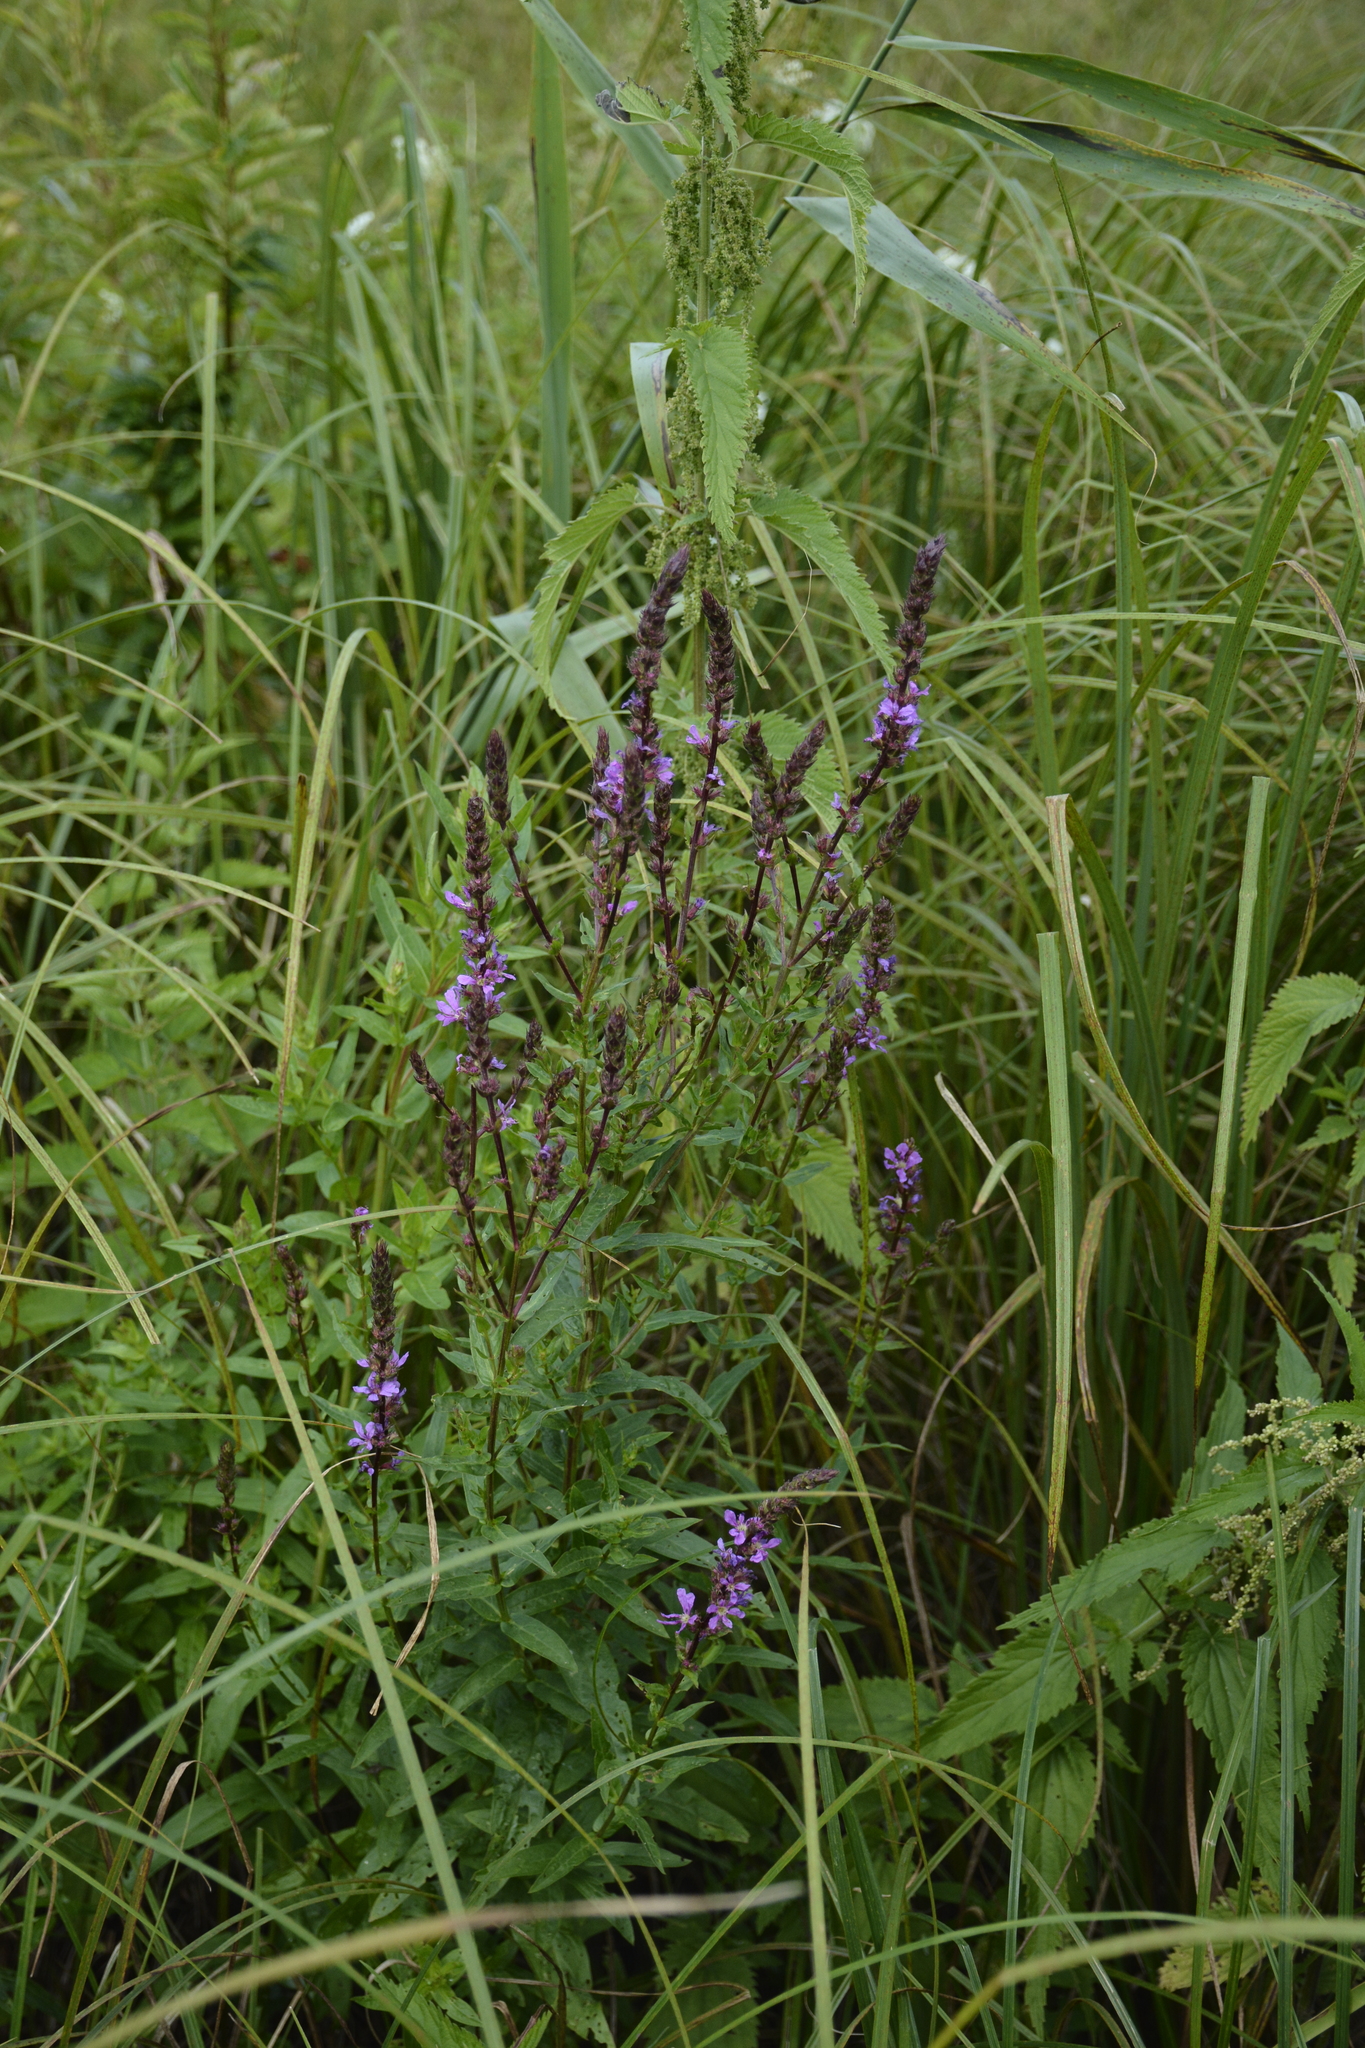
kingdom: Plantae
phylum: Tracheophyta
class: Magnoliopsida
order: Myrtales
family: Lythraceae
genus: Lythrum
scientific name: Lythrum salicaria
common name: Purple loosestrife
